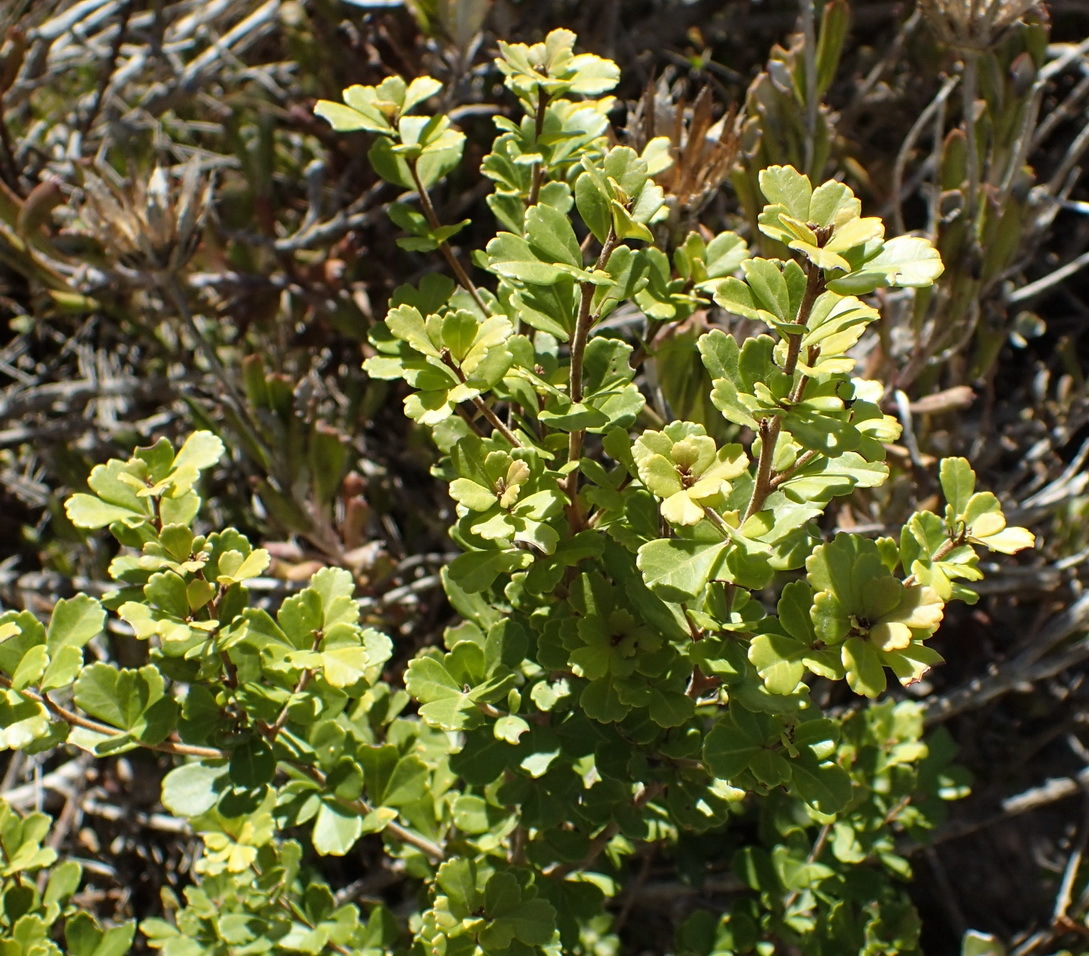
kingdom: Plantae
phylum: Tracheophyta
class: Magnoliopsida
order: Sapindales
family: Anacardiaceae
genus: Searsia
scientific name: Searsia crenata
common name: Crowberry
